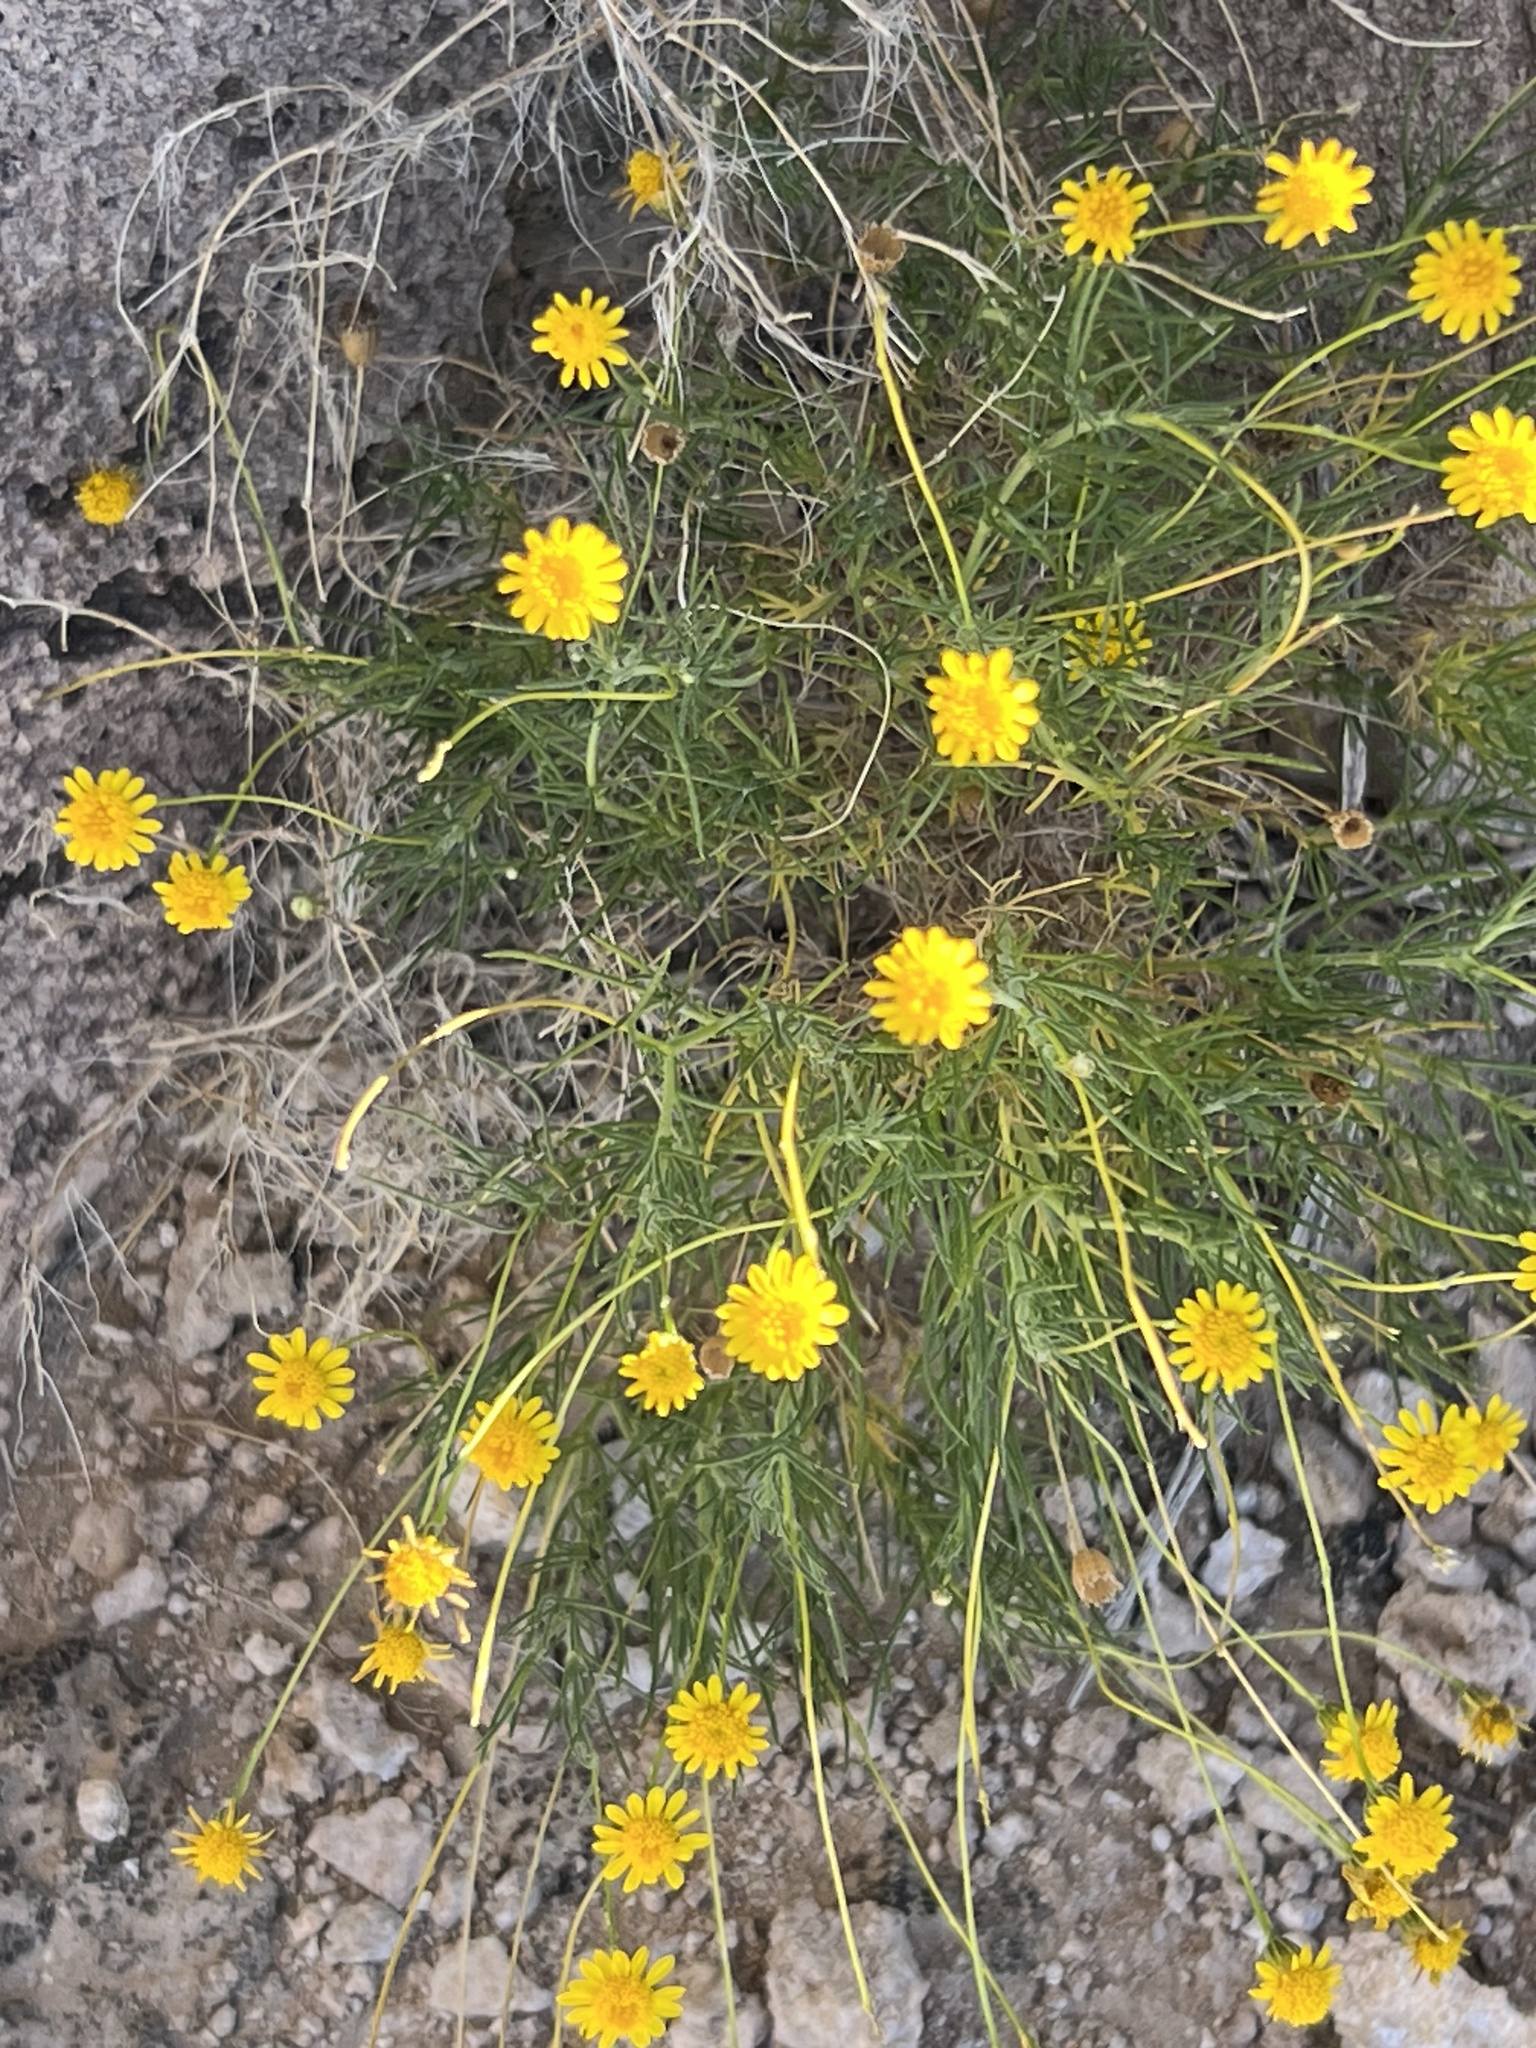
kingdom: Plantae
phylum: Tracheophyta
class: Magnoliopsida
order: Asterales
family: Asteraceae
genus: Thymophylla
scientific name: Thymophylla pentachaeta
